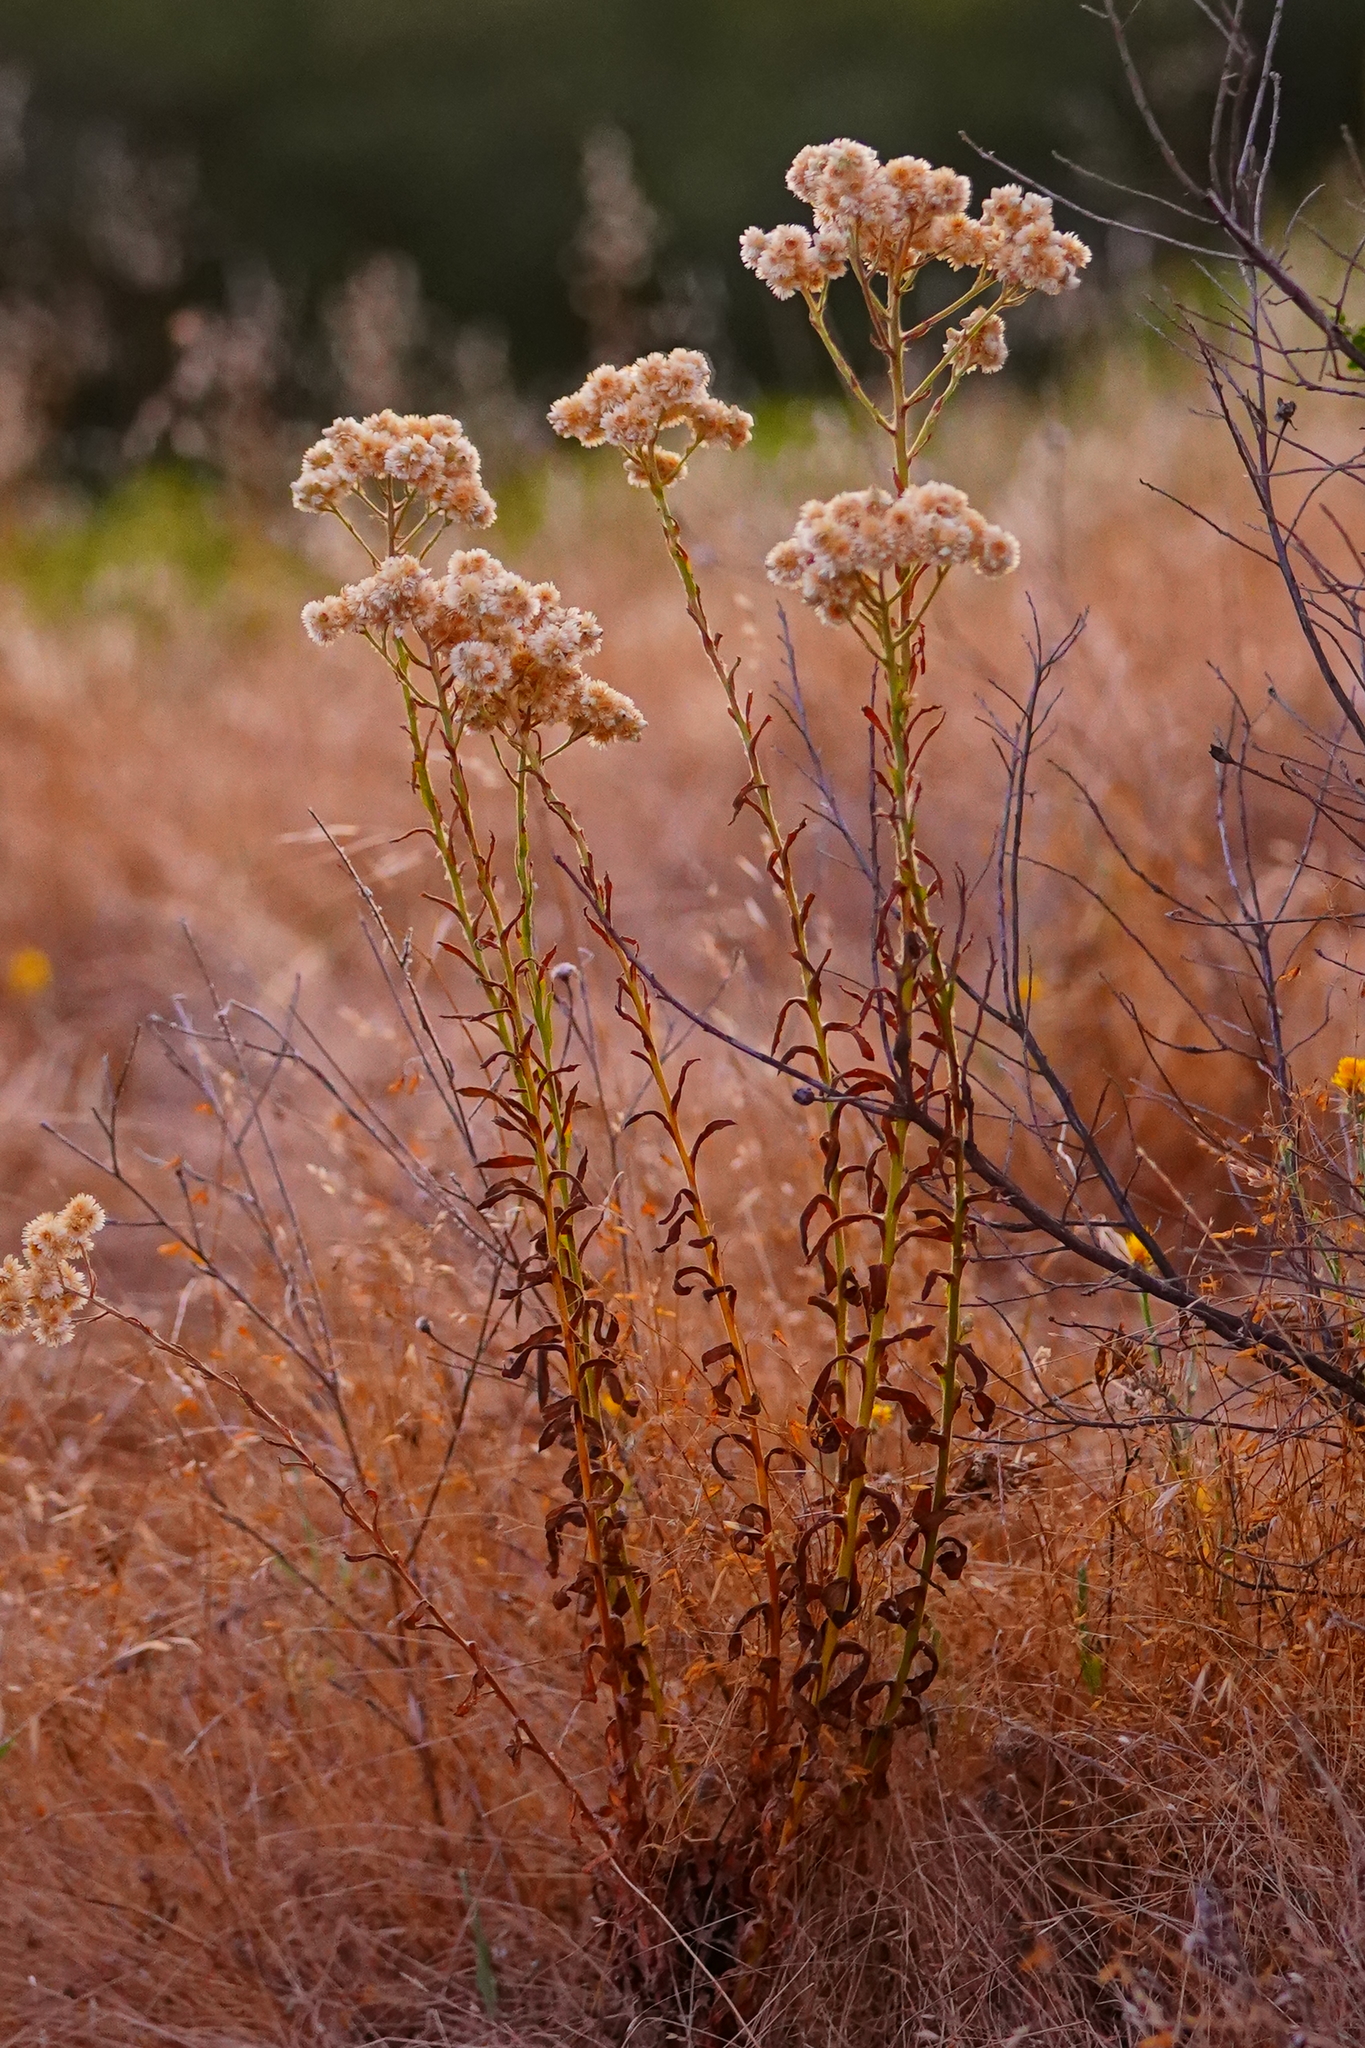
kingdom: Plantae
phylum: Tracheophyta
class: Magnoliopsida
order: Asterales
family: Asteraceae
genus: Pseudognaphalium
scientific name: Pseudognaphalium californicum
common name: California rabbit-tobacco
